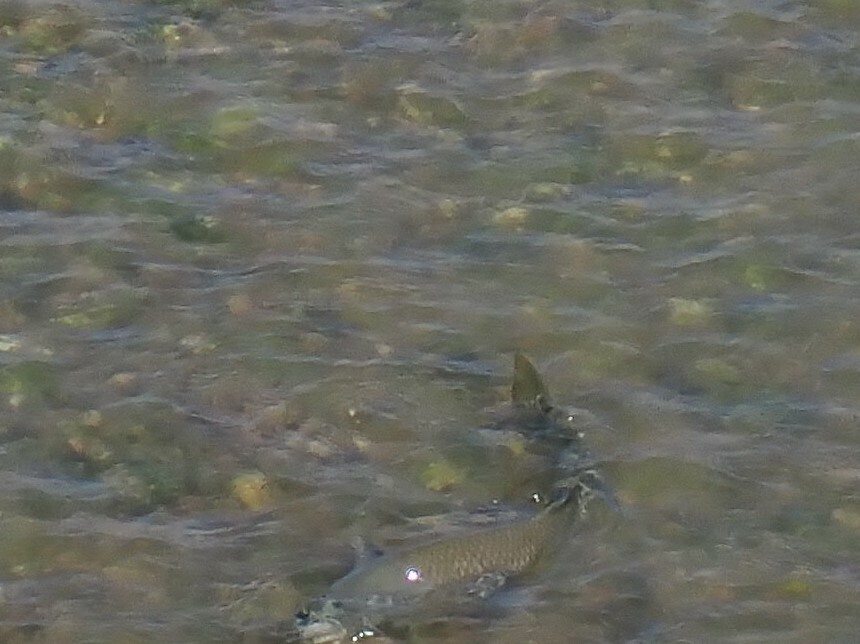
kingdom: Animalia
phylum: Chordata
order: Cypriniformes
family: Cyprinidae
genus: Cyprinus
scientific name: Cyprinus carpio
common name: Common carp
